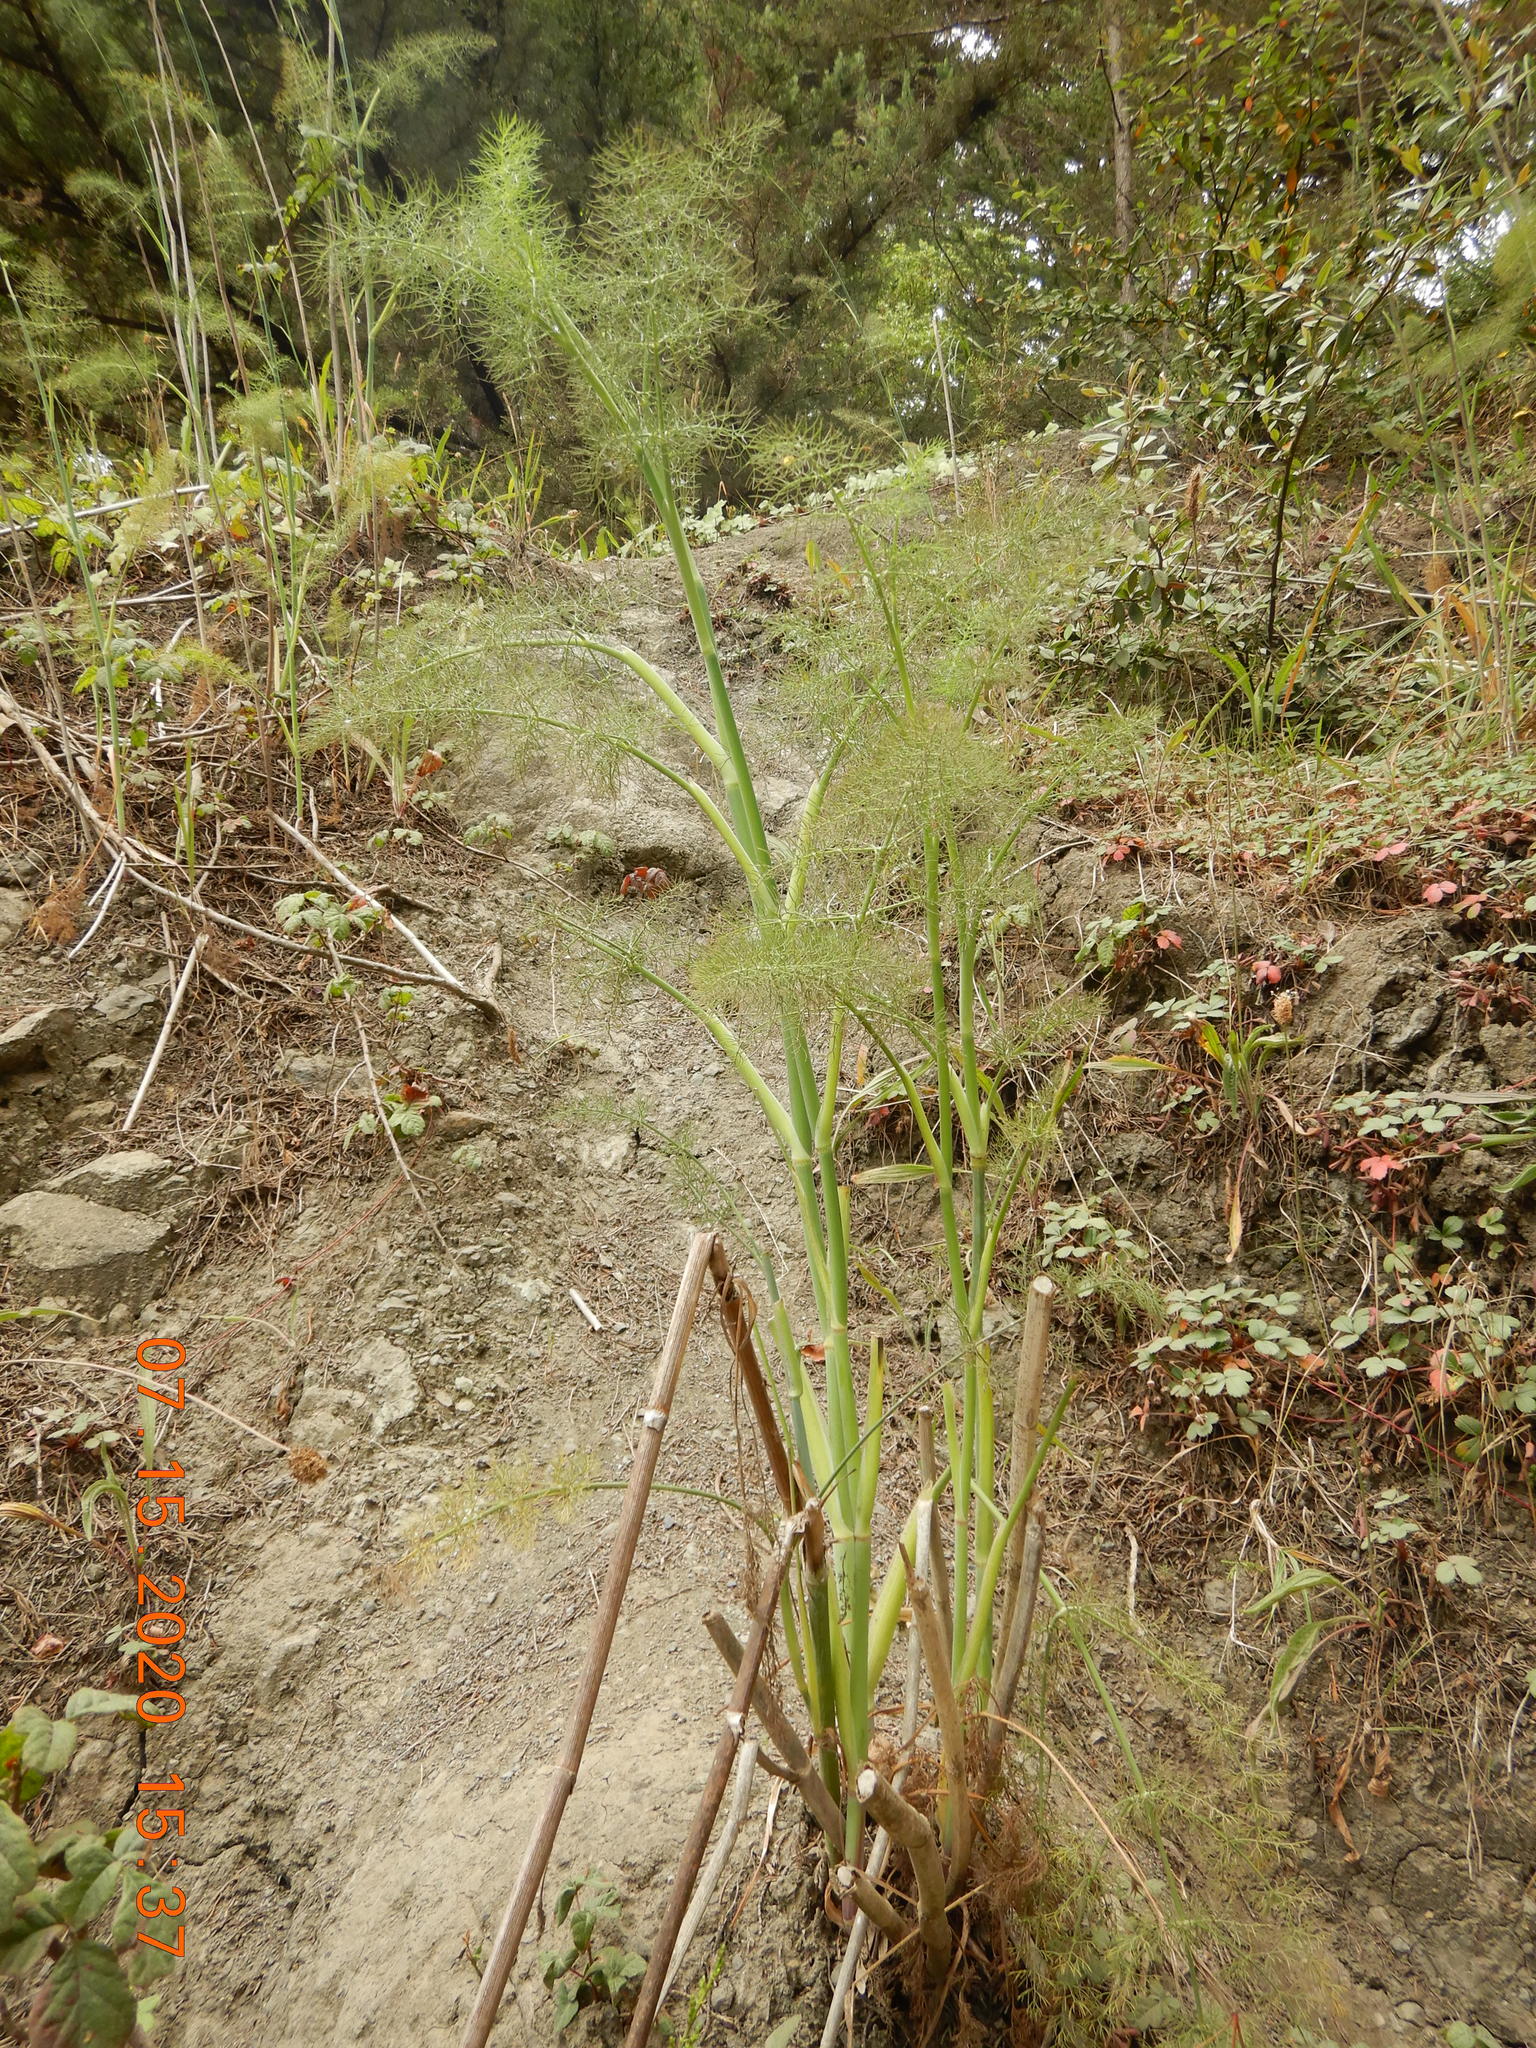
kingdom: Plantae
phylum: Tracheophyta
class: Magnoliopsida
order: Apiales
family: Apiaceae
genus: Foeniculum
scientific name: Foeniculum vulgare
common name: Fennel
